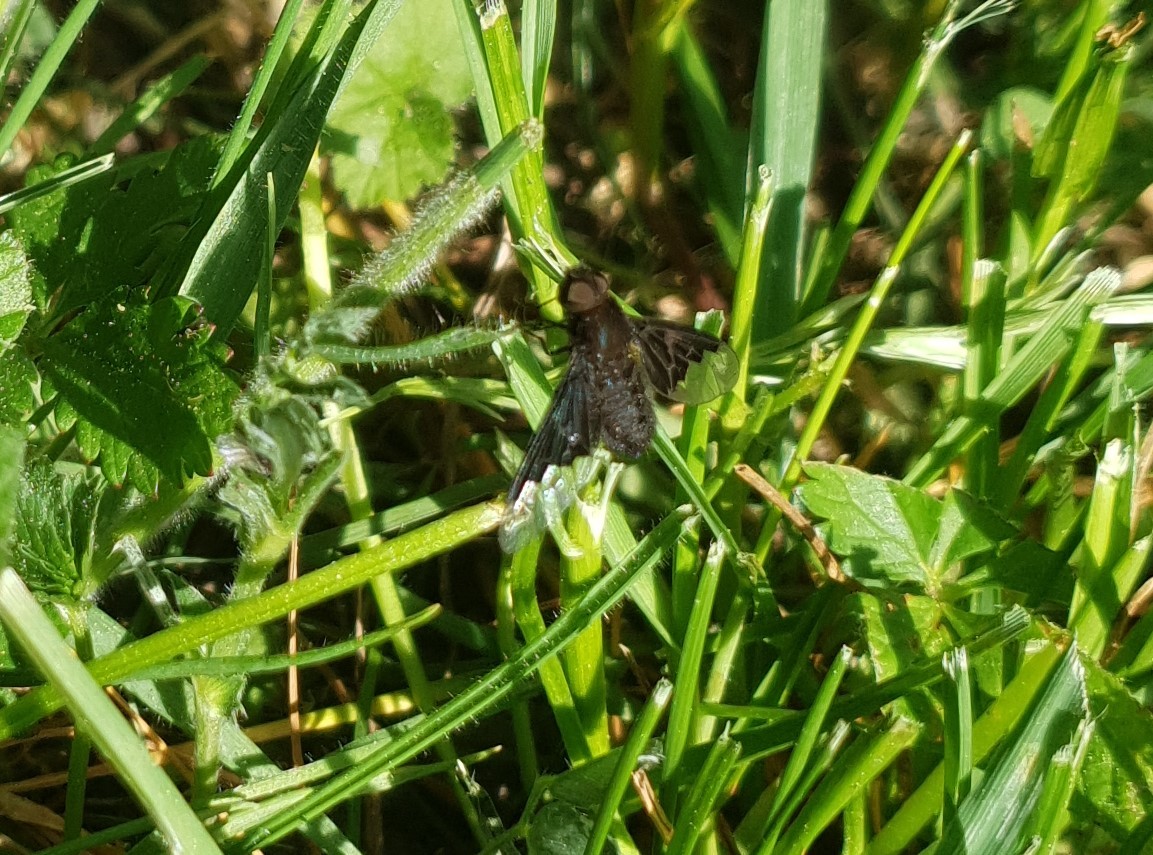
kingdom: Animalia
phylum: Arthropoda
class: Insecta
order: Diptera
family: Bombyliidae
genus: Hemipenthes
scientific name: Hemipenthes morio
